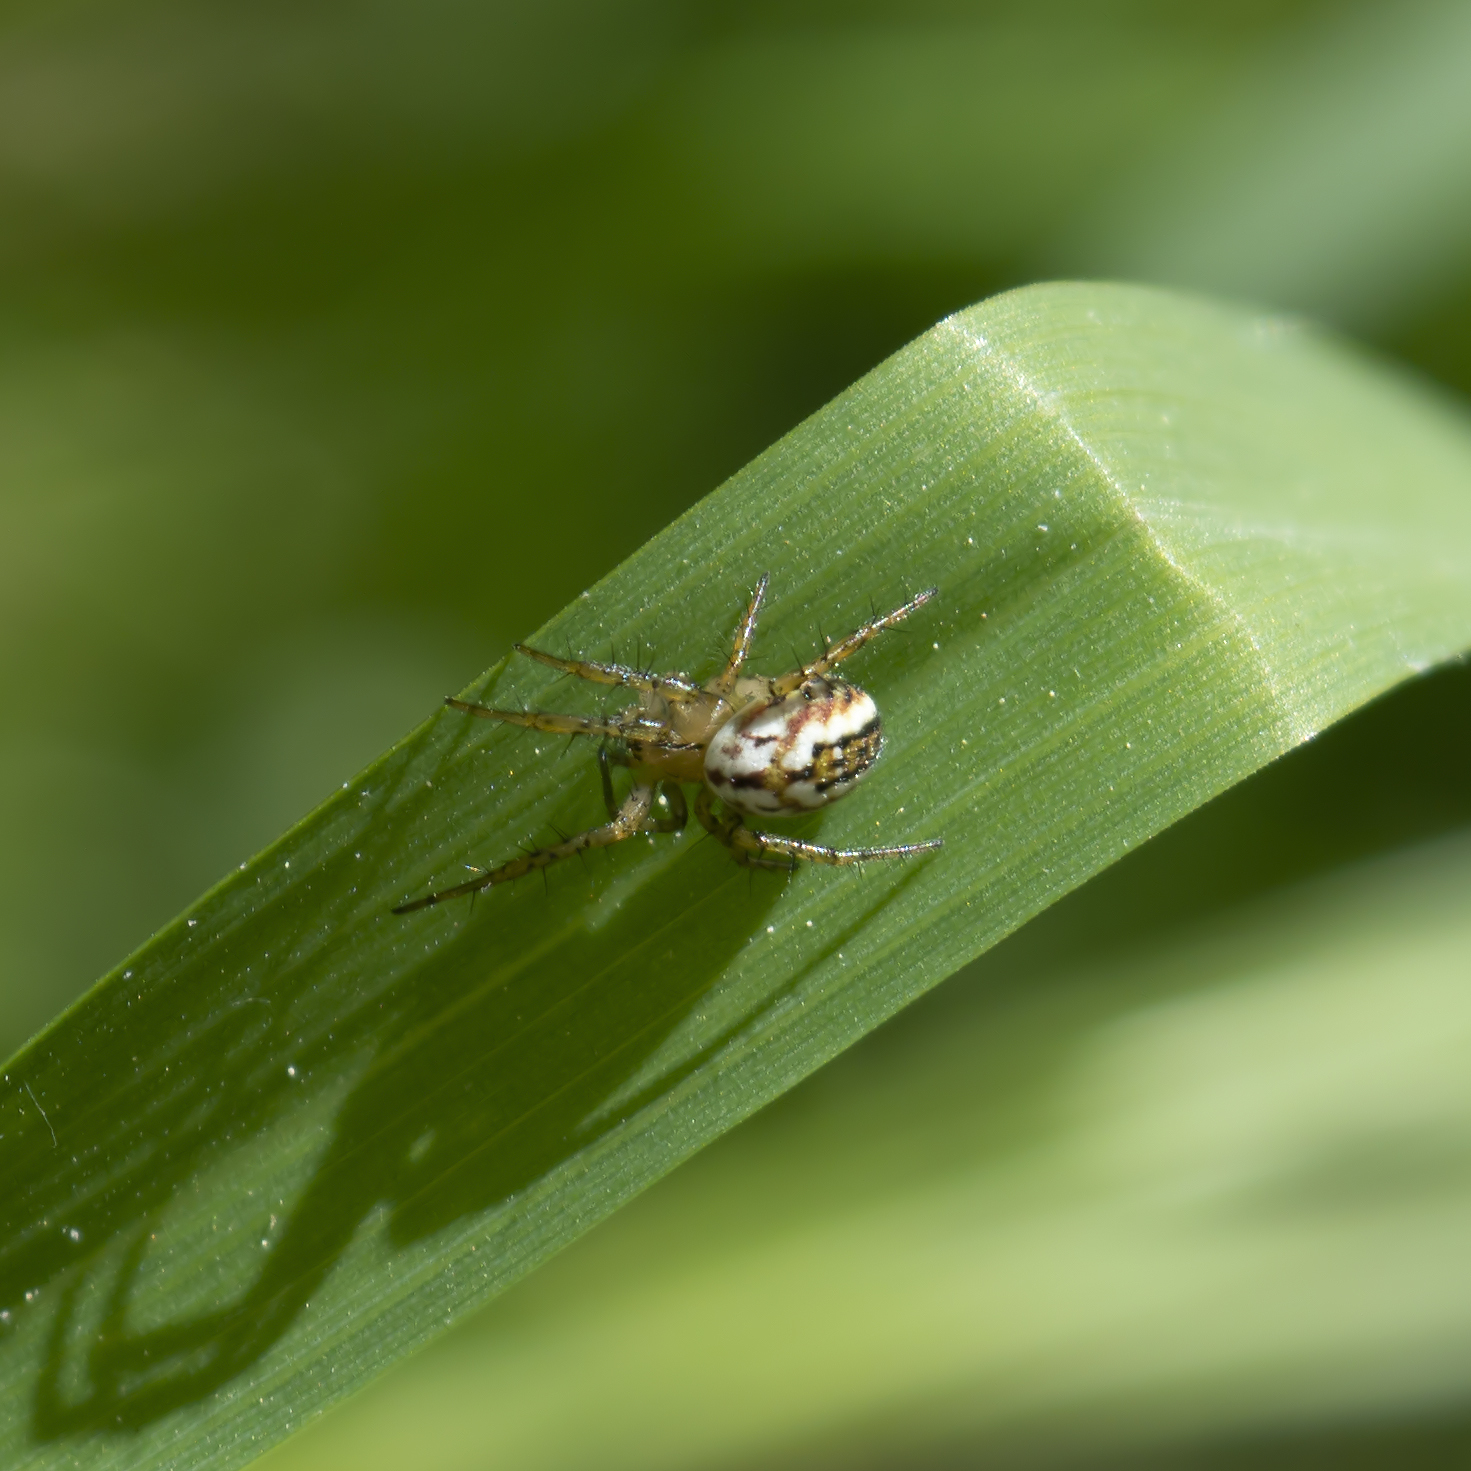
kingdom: Animalia
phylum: Arthropoda
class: Arachnida
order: Araneae
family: Araneidae
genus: Mangora
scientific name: Mangora acalypha
